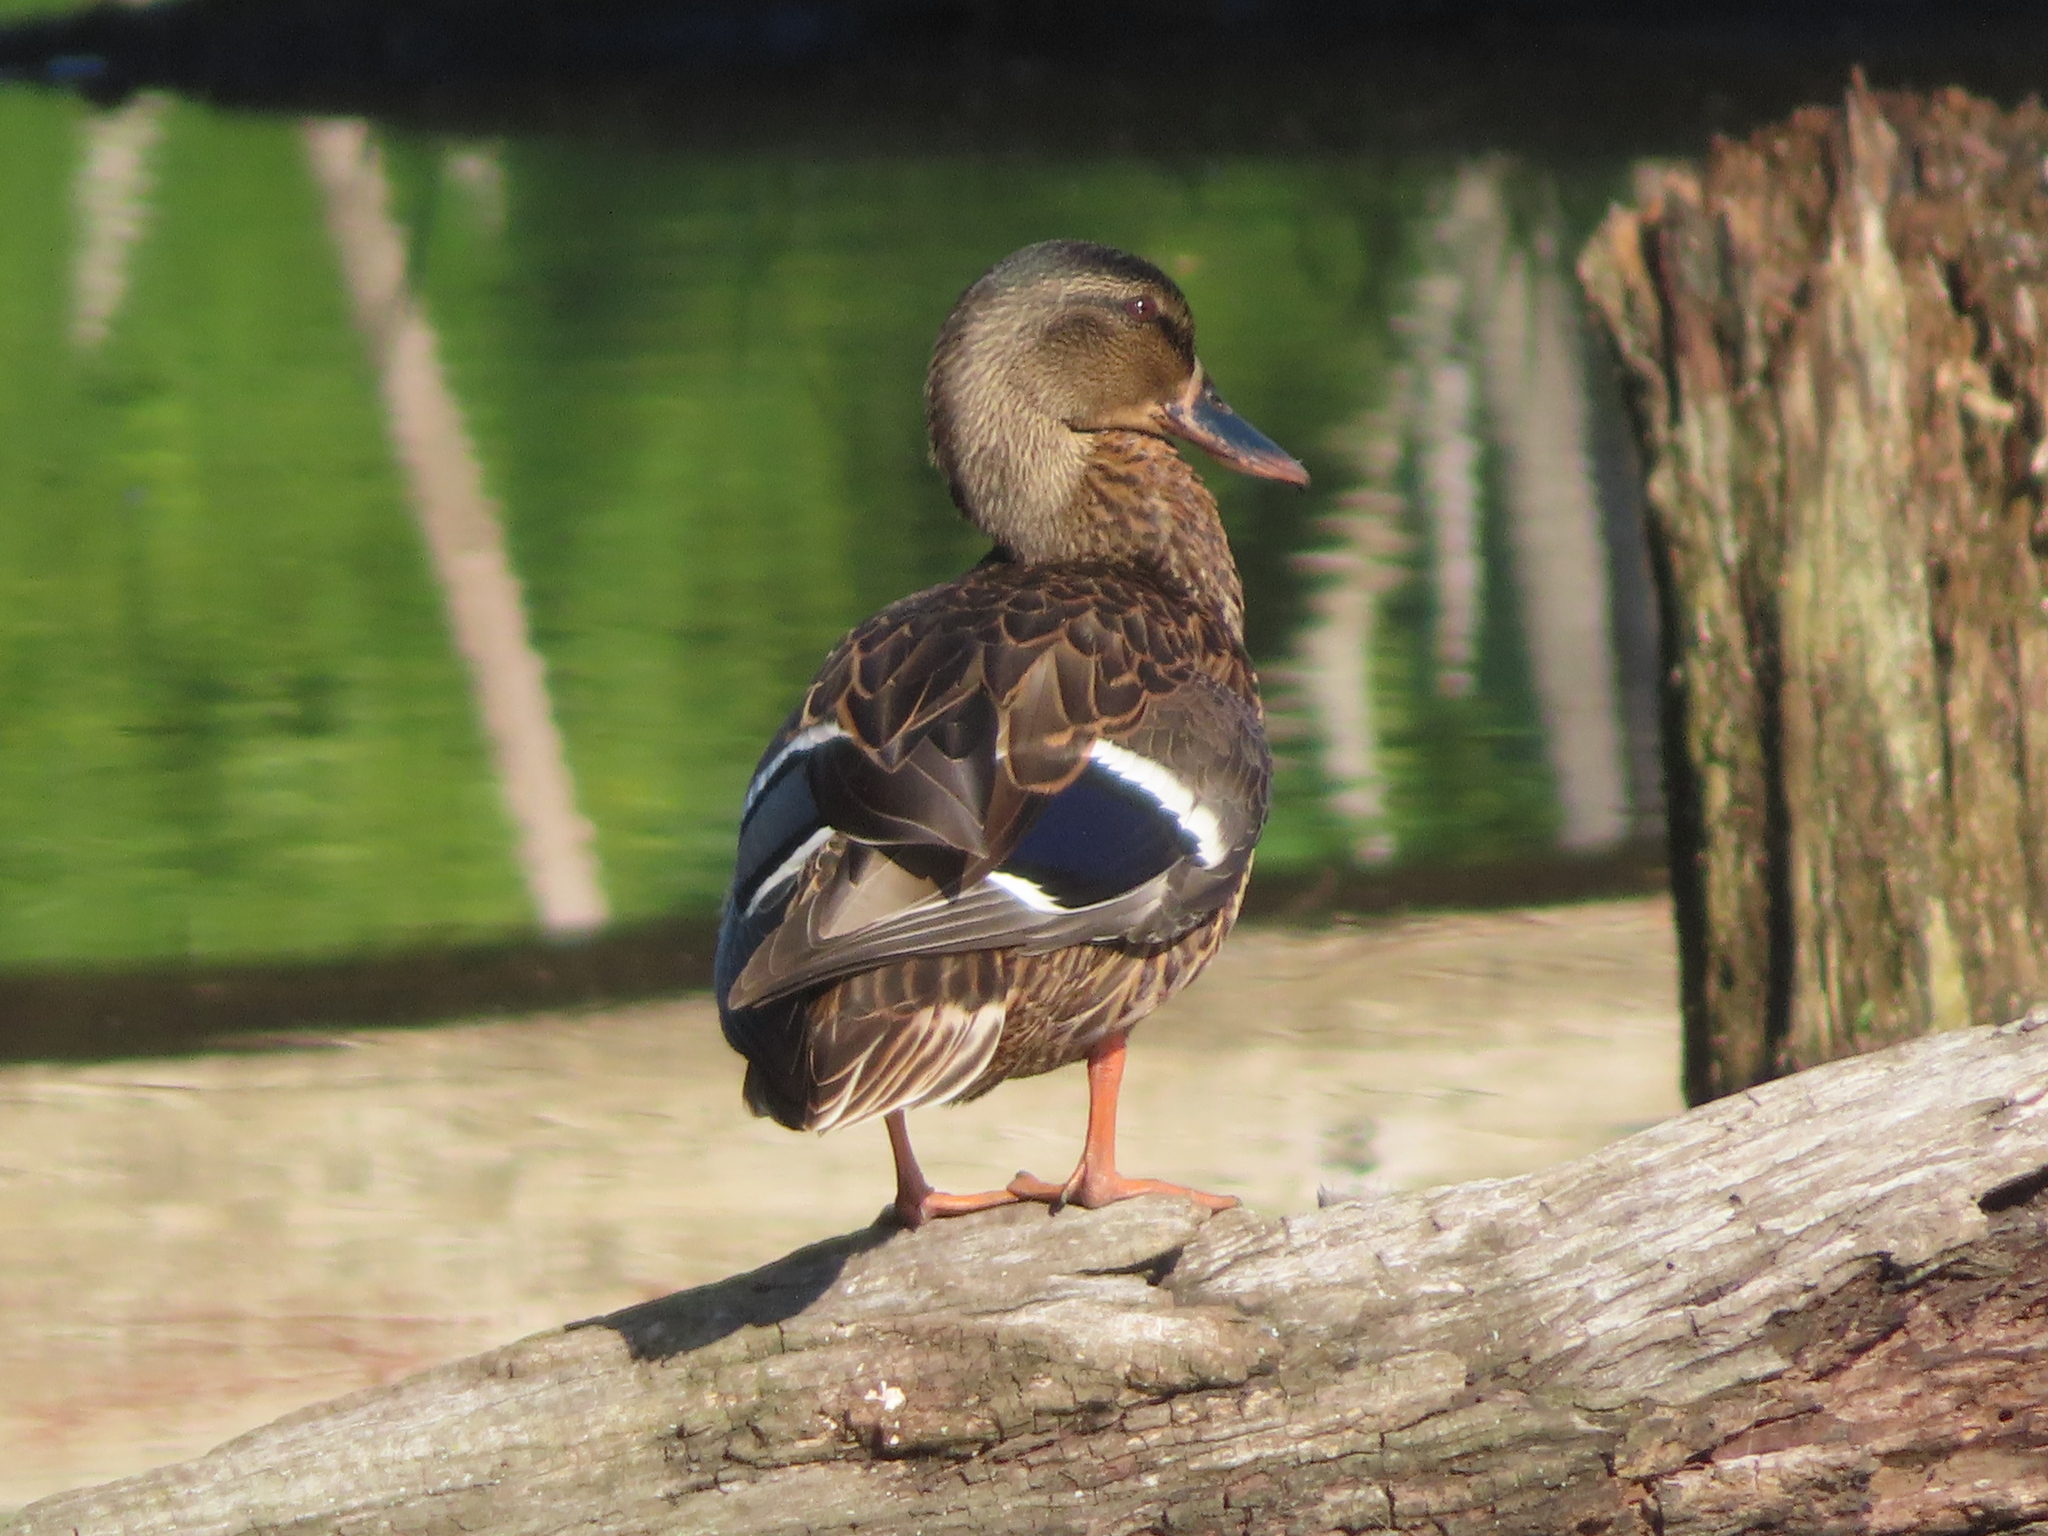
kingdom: Animalia
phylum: Chordata
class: Aves
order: Anseriformes
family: Anatidae
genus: Anas
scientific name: Anas platyrhynchos
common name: Mallard
